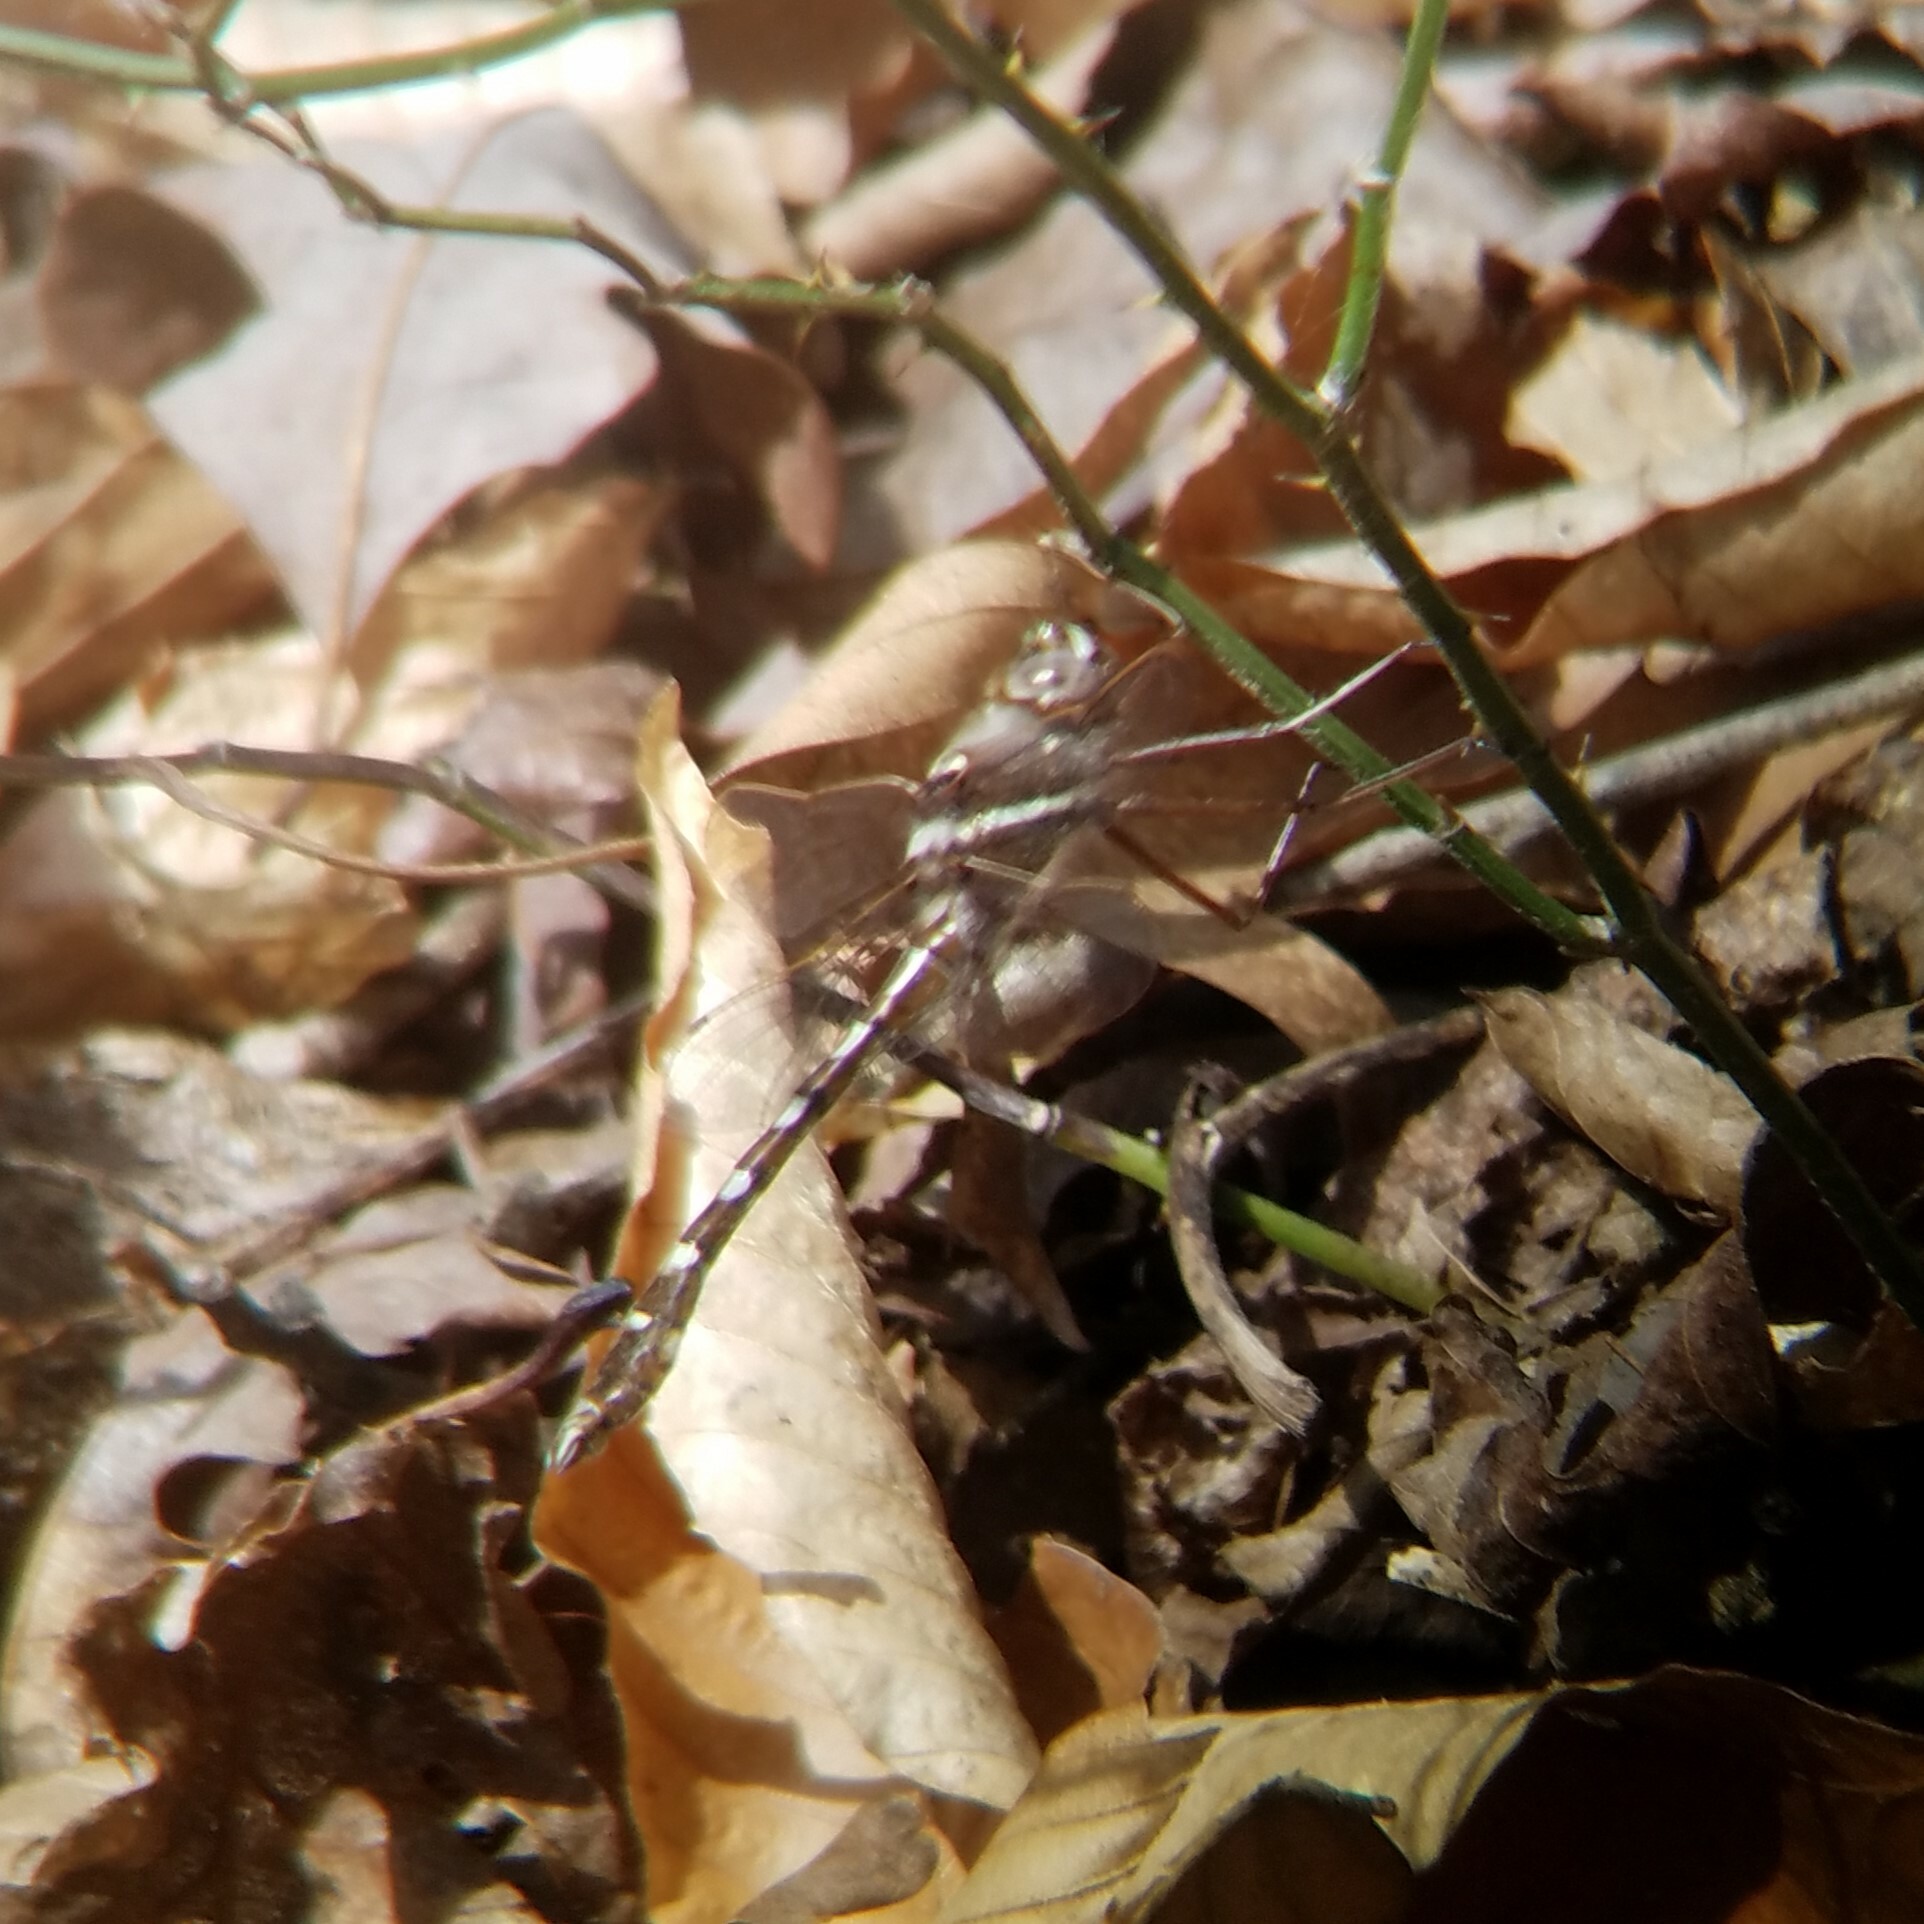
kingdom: Animalia
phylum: Arthropoda
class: Insecta
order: Odonata
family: Macromiidae
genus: Didymops
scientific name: Didymops transversa
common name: Stream cruiser
